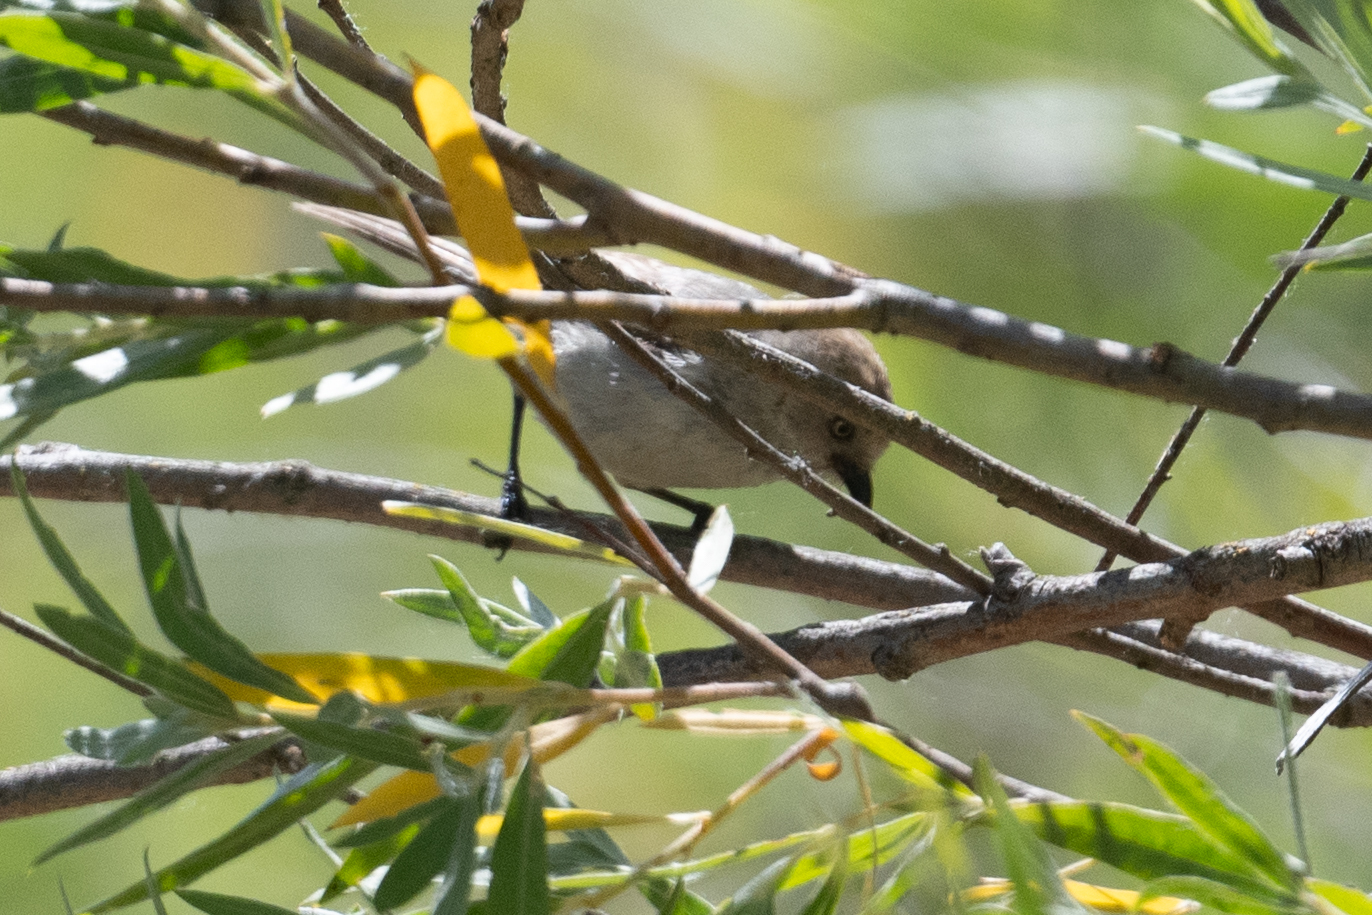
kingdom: Animalia
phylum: Chordata
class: Aves
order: Passeriformes
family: Aegithalidae
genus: Psaltriparus
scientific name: Psaltriparus minimus
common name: American bushtit
